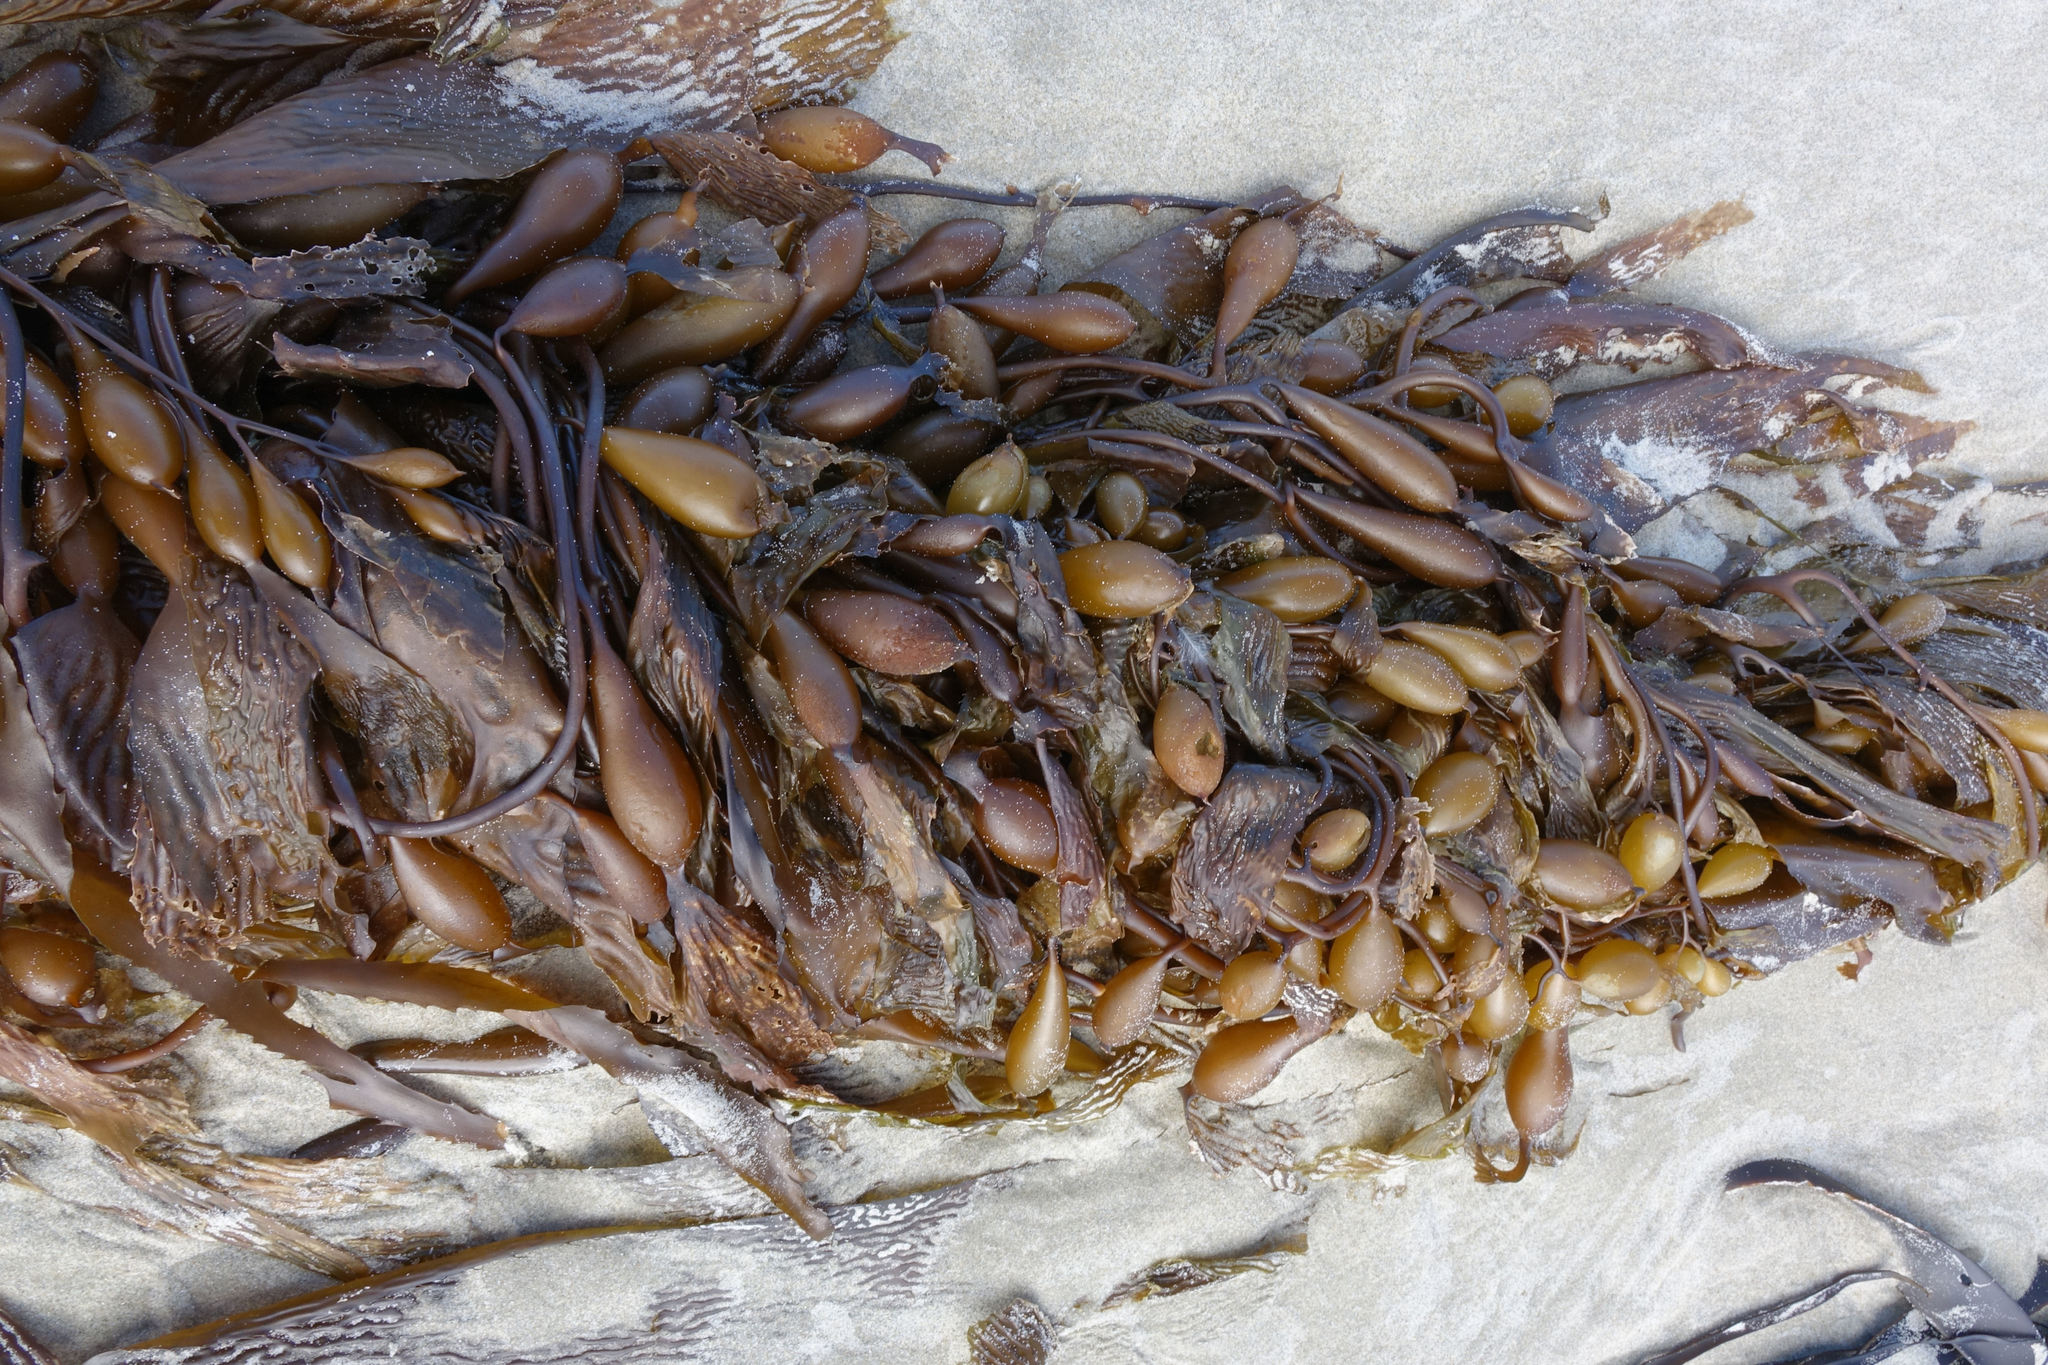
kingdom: Chromista
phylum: Ochrophyta
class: Phaeophyceae
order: Laminariales
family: Laminariaceae
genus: Macrocystis
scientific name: Macrocystis pyrifera
